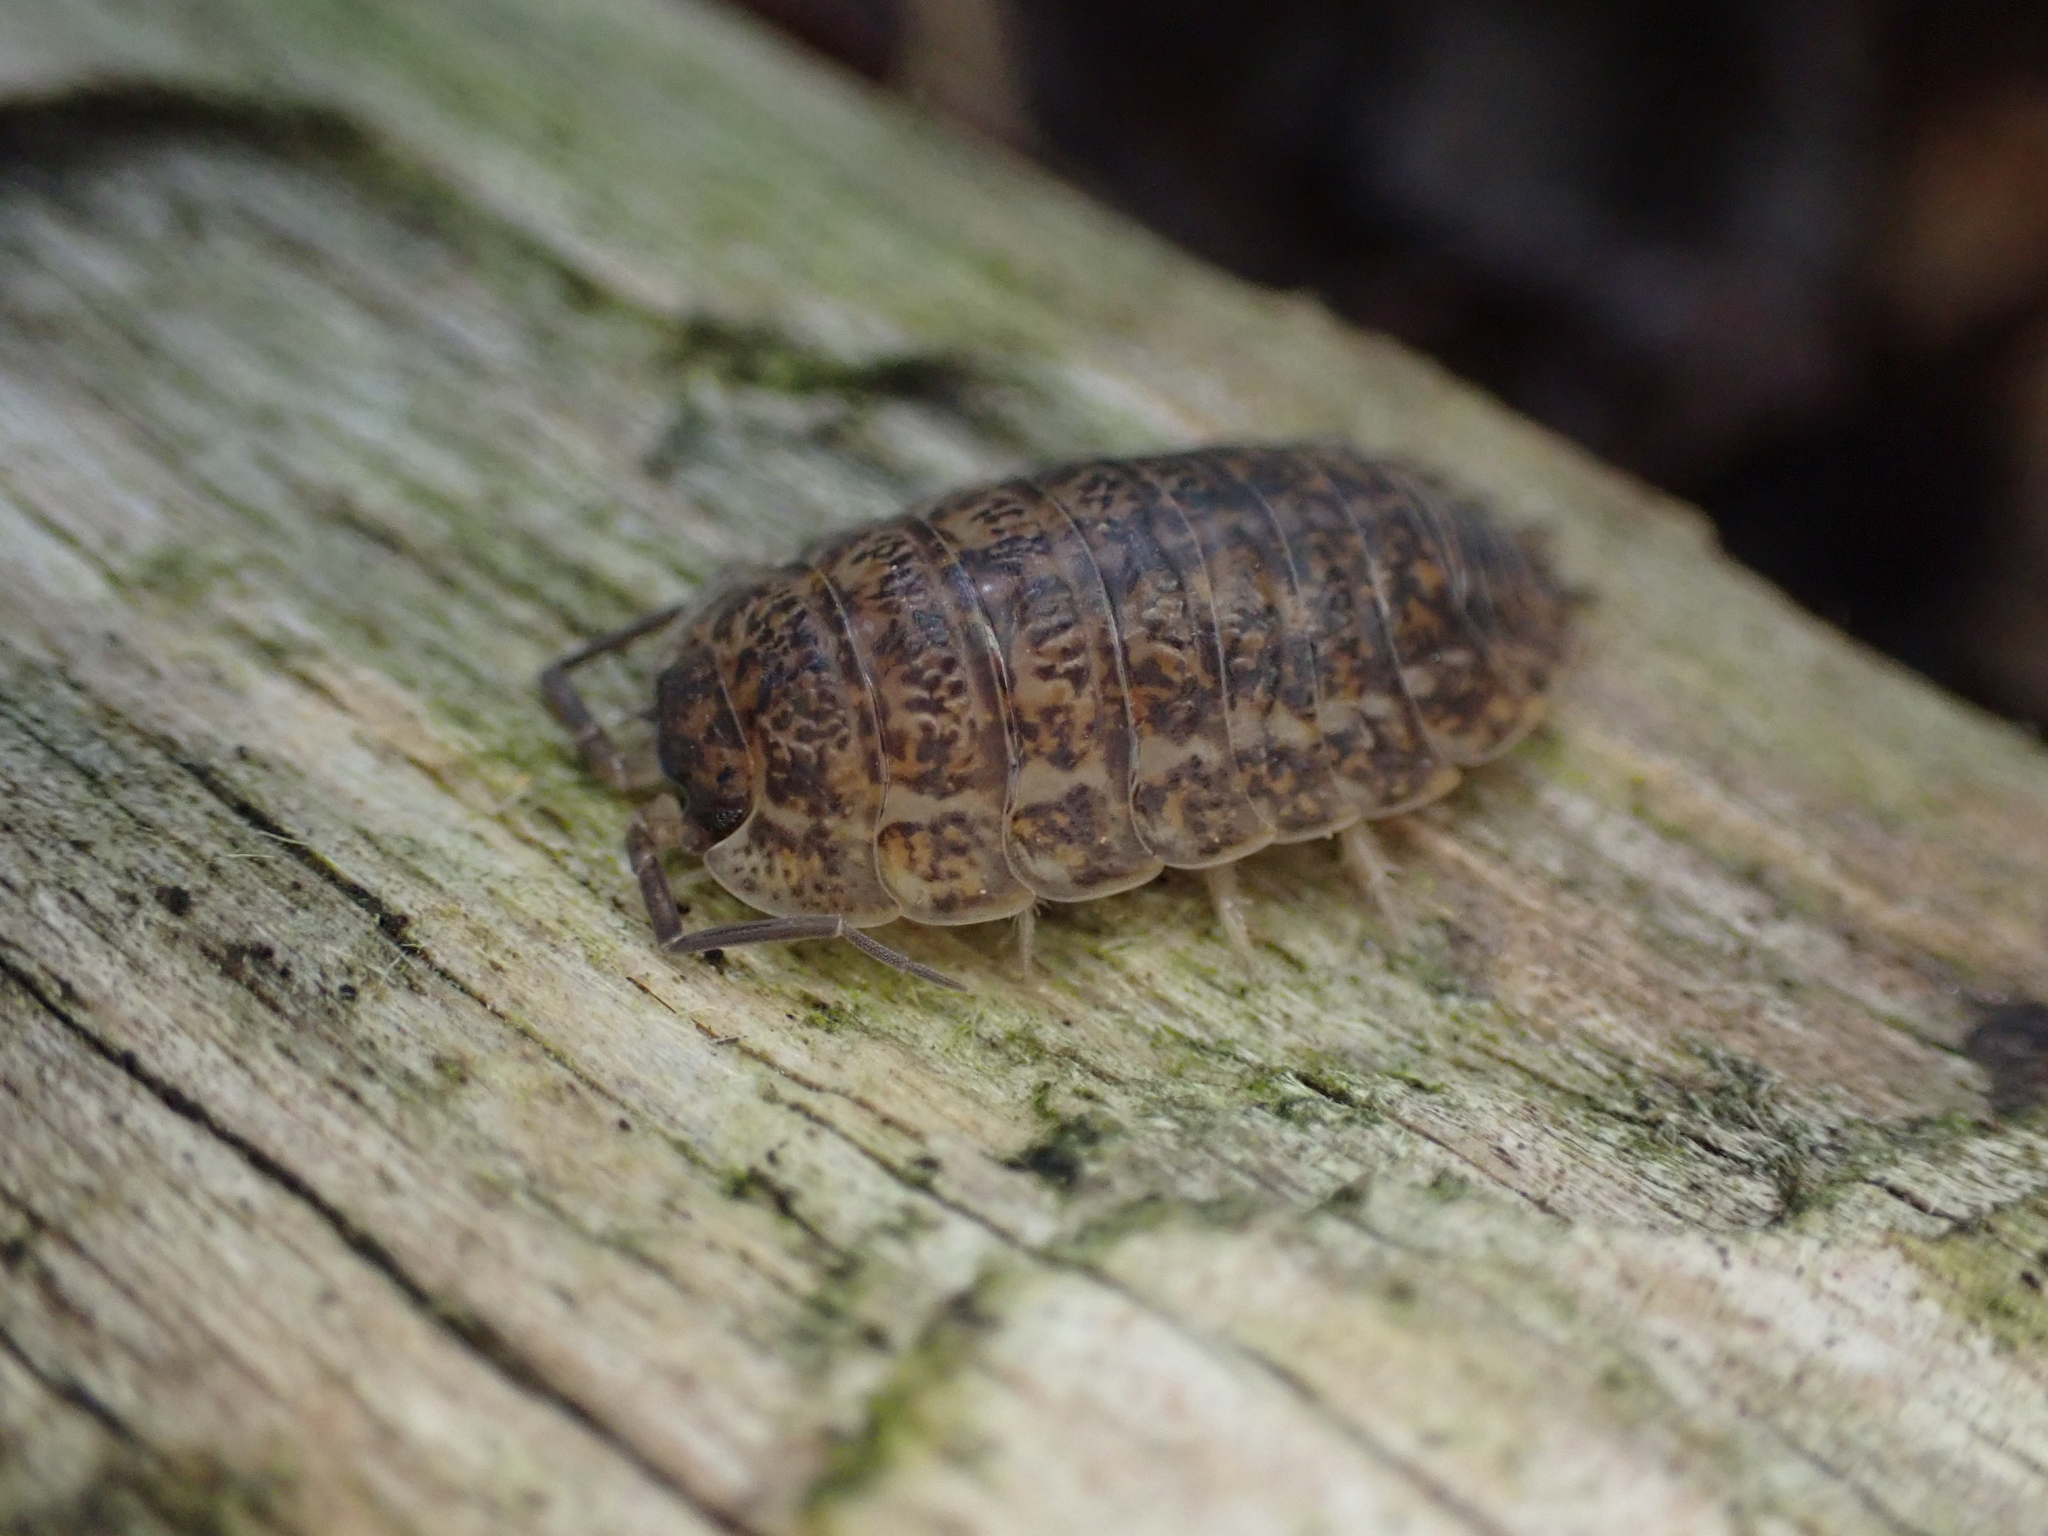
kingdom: Animalia
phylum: Arthropoda
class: Malacostraca
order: Isopoda
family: Trachelipodidae
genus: Trachelipus
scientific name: Trachelipus rathkii
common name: Isopod
